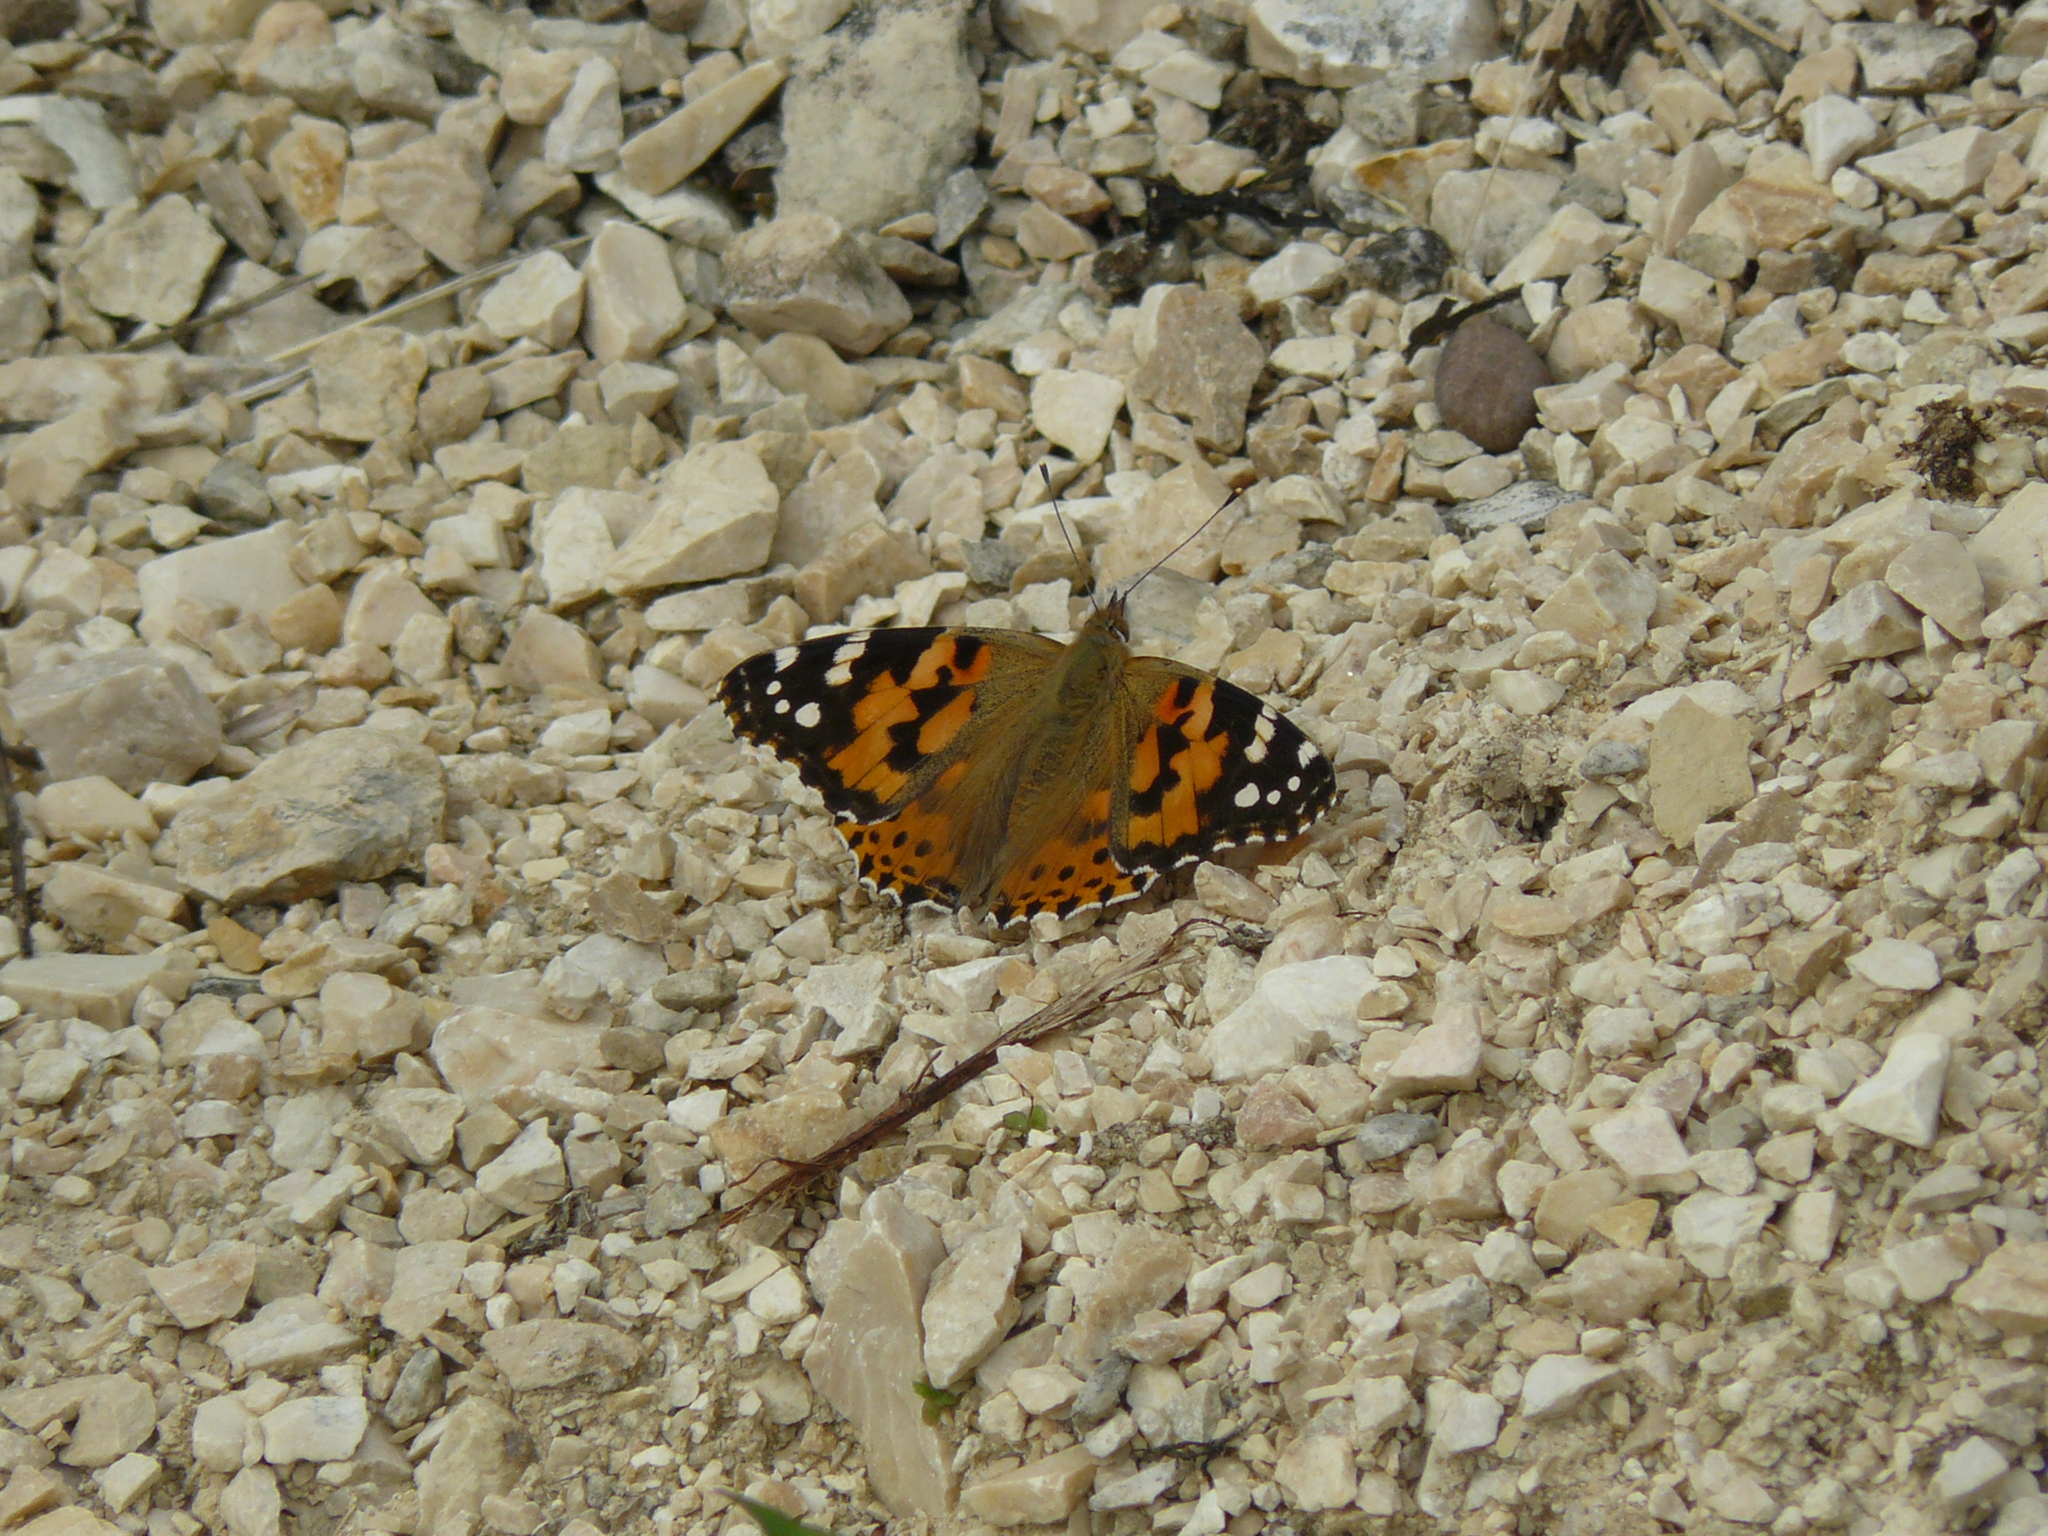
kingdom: Animalia
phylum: Arthropoda
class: Insecta
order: Lepidoptera
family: Nymphalidae
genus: Vanessa
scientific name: Vanessa cardui
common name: Painted lady
